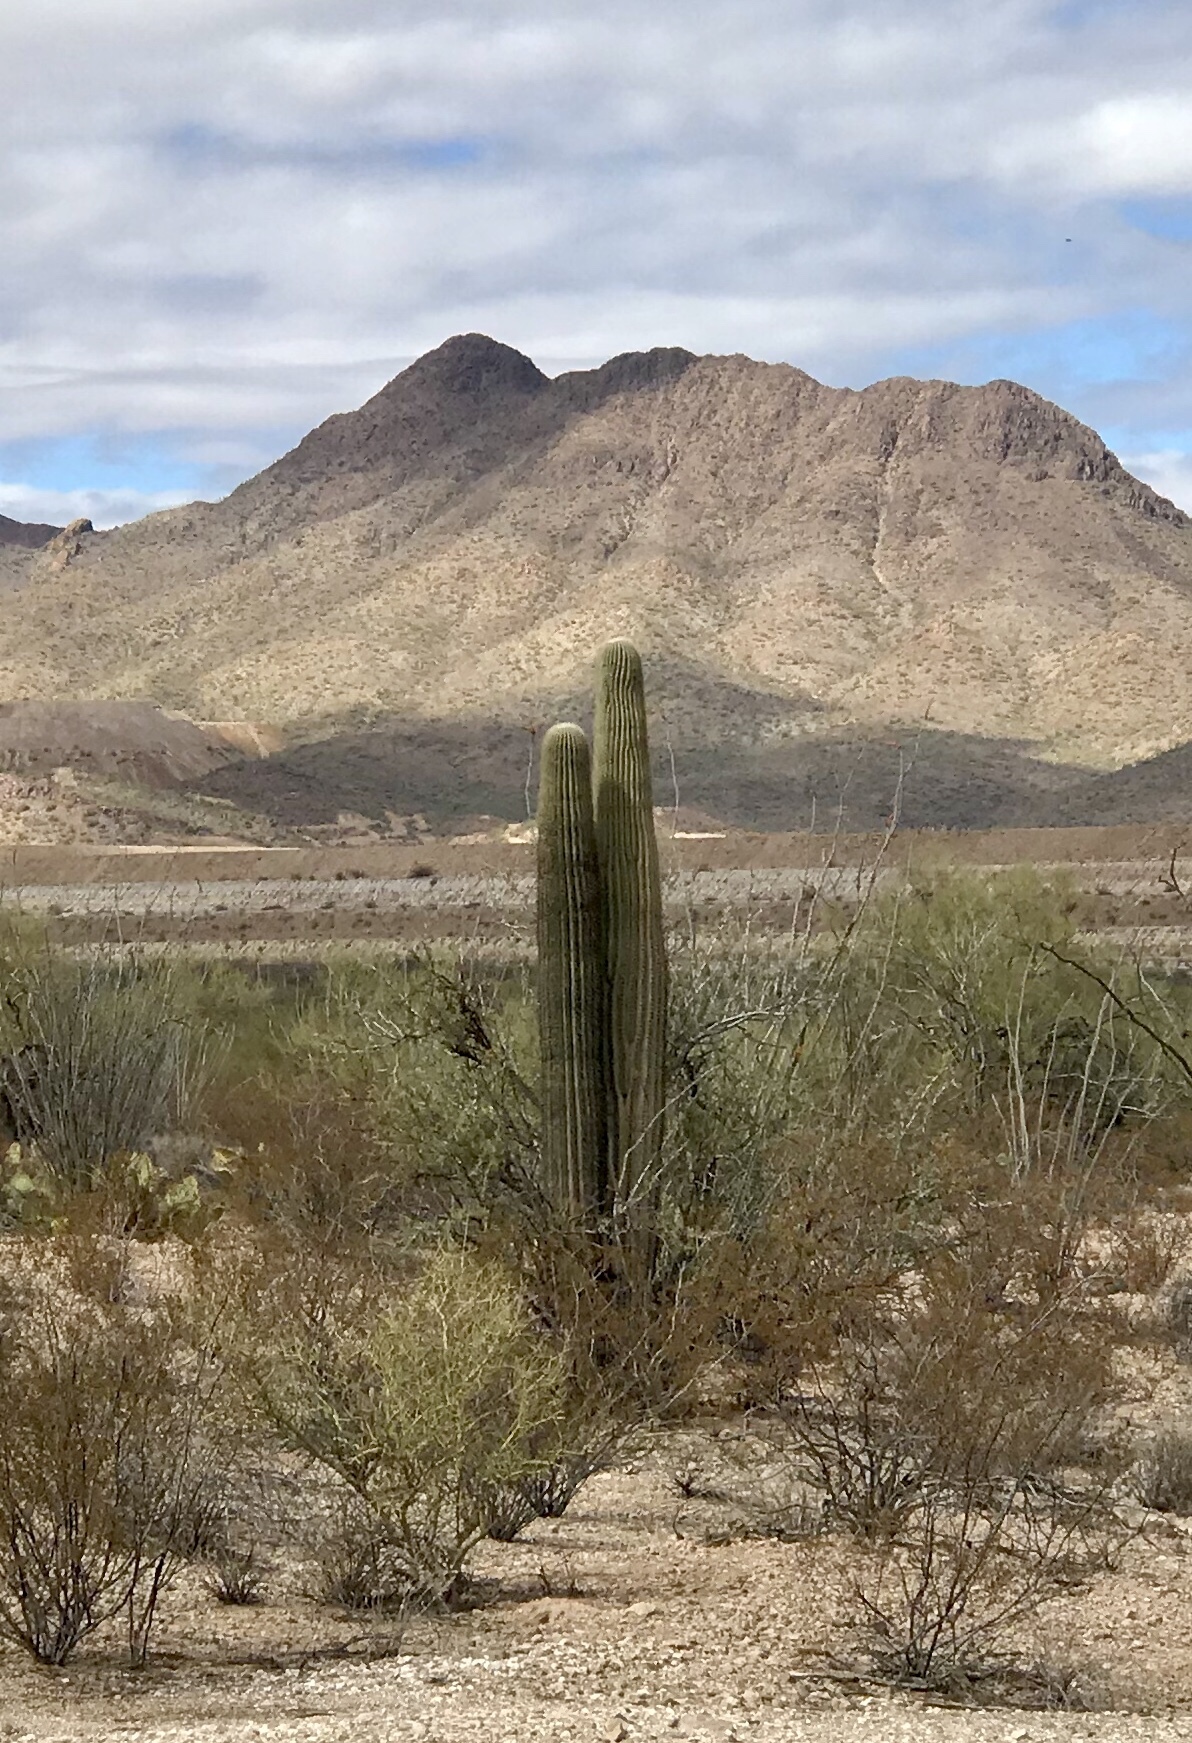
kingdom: Plantae
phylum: Tracheophyta
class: Magnoliopsida
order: Caryophyllales
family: Cactaceae
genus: Carnegiea
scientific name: Carnegiea gigantea
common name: Saguaro
